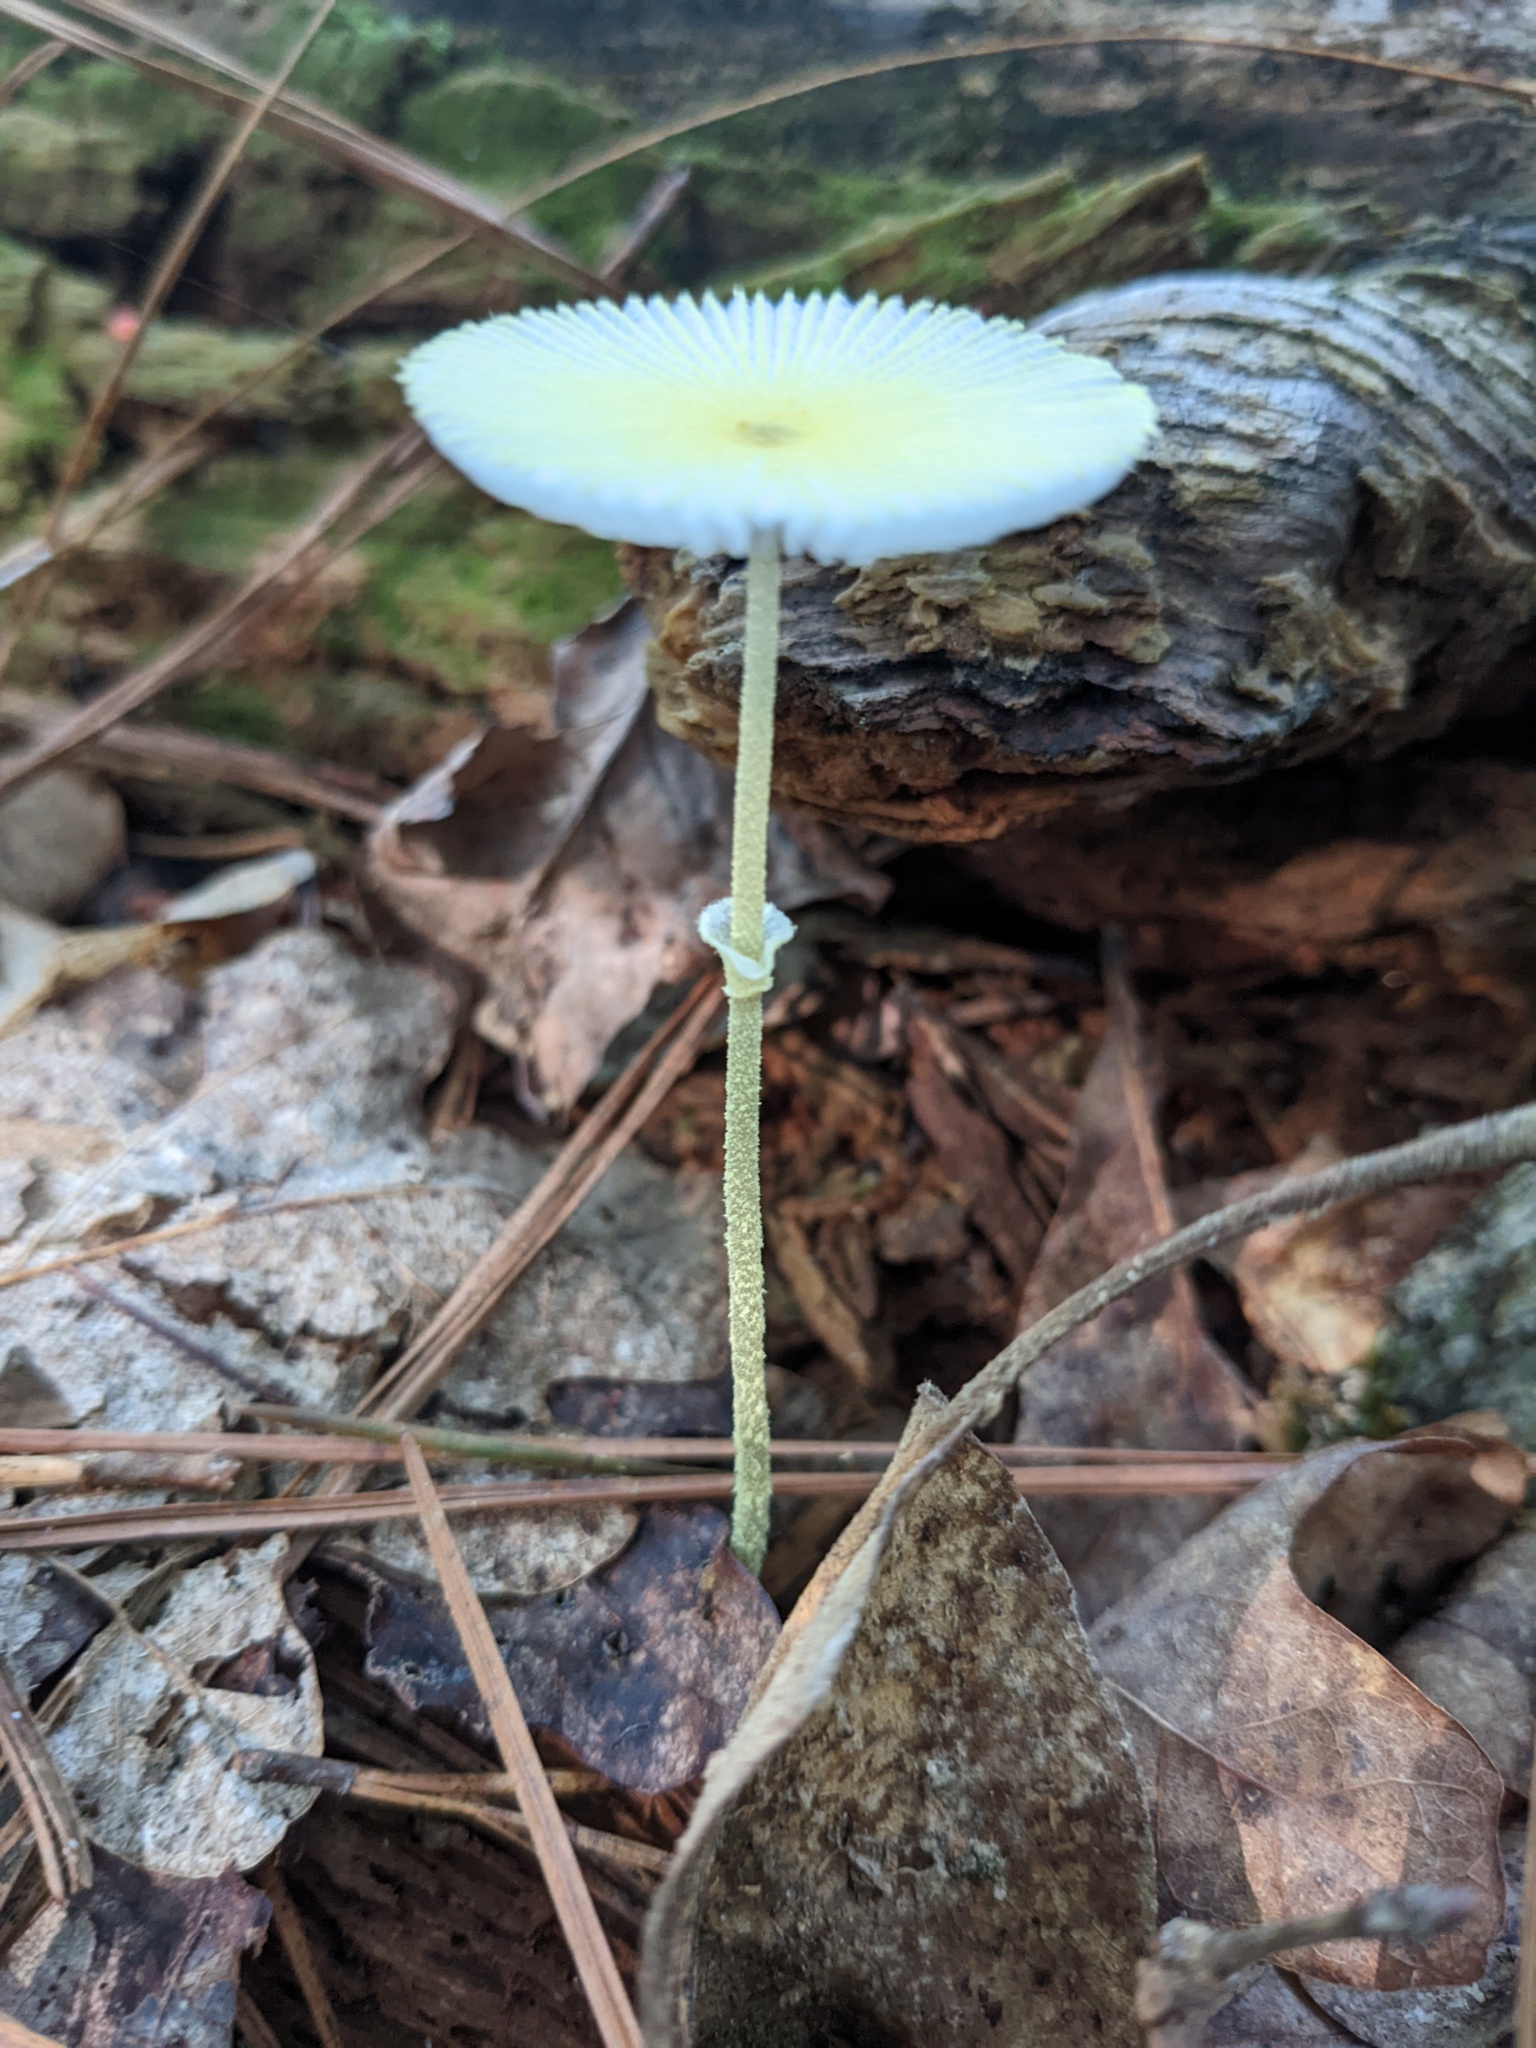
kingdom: Fungi
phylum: Basidiomycota
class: Agaricomycetes
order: Agaricales
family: Agaricaceae
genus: Leucocoprinus
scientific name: Leucocoprinus fragilissimus
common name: Fragile dapperling
